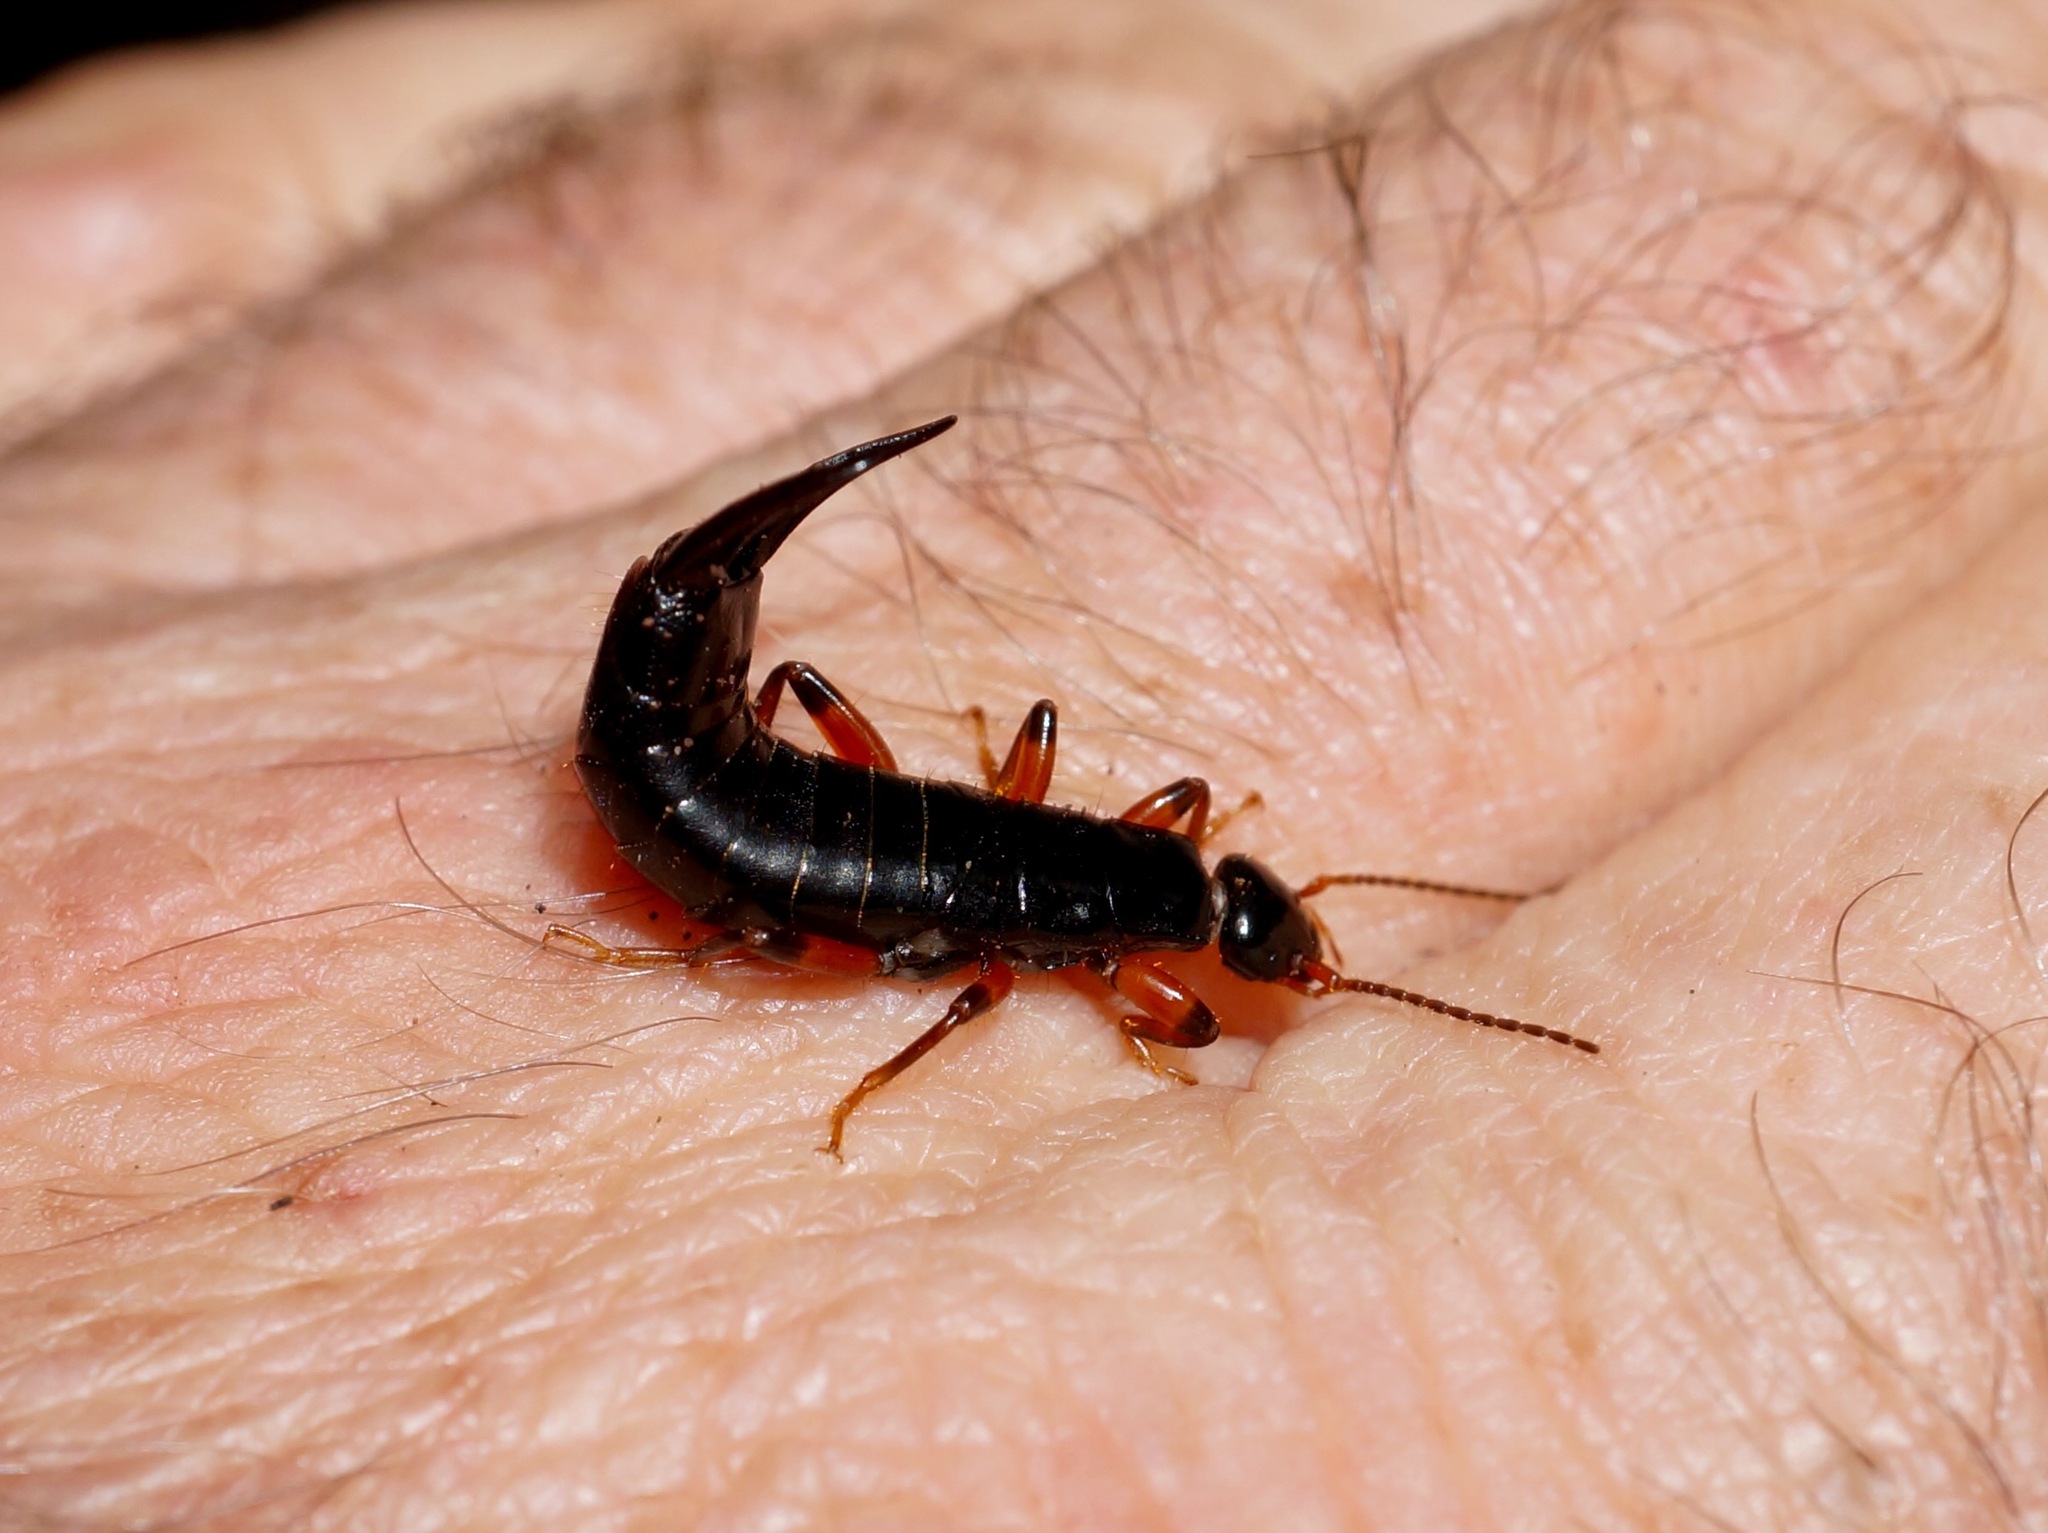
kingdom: Animalia
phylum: Arthropoda
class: Insecta
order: Dermaptera
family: Anisolabididae
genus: Anisolabis
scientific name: Anisolabis pacifica
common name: Earwig
